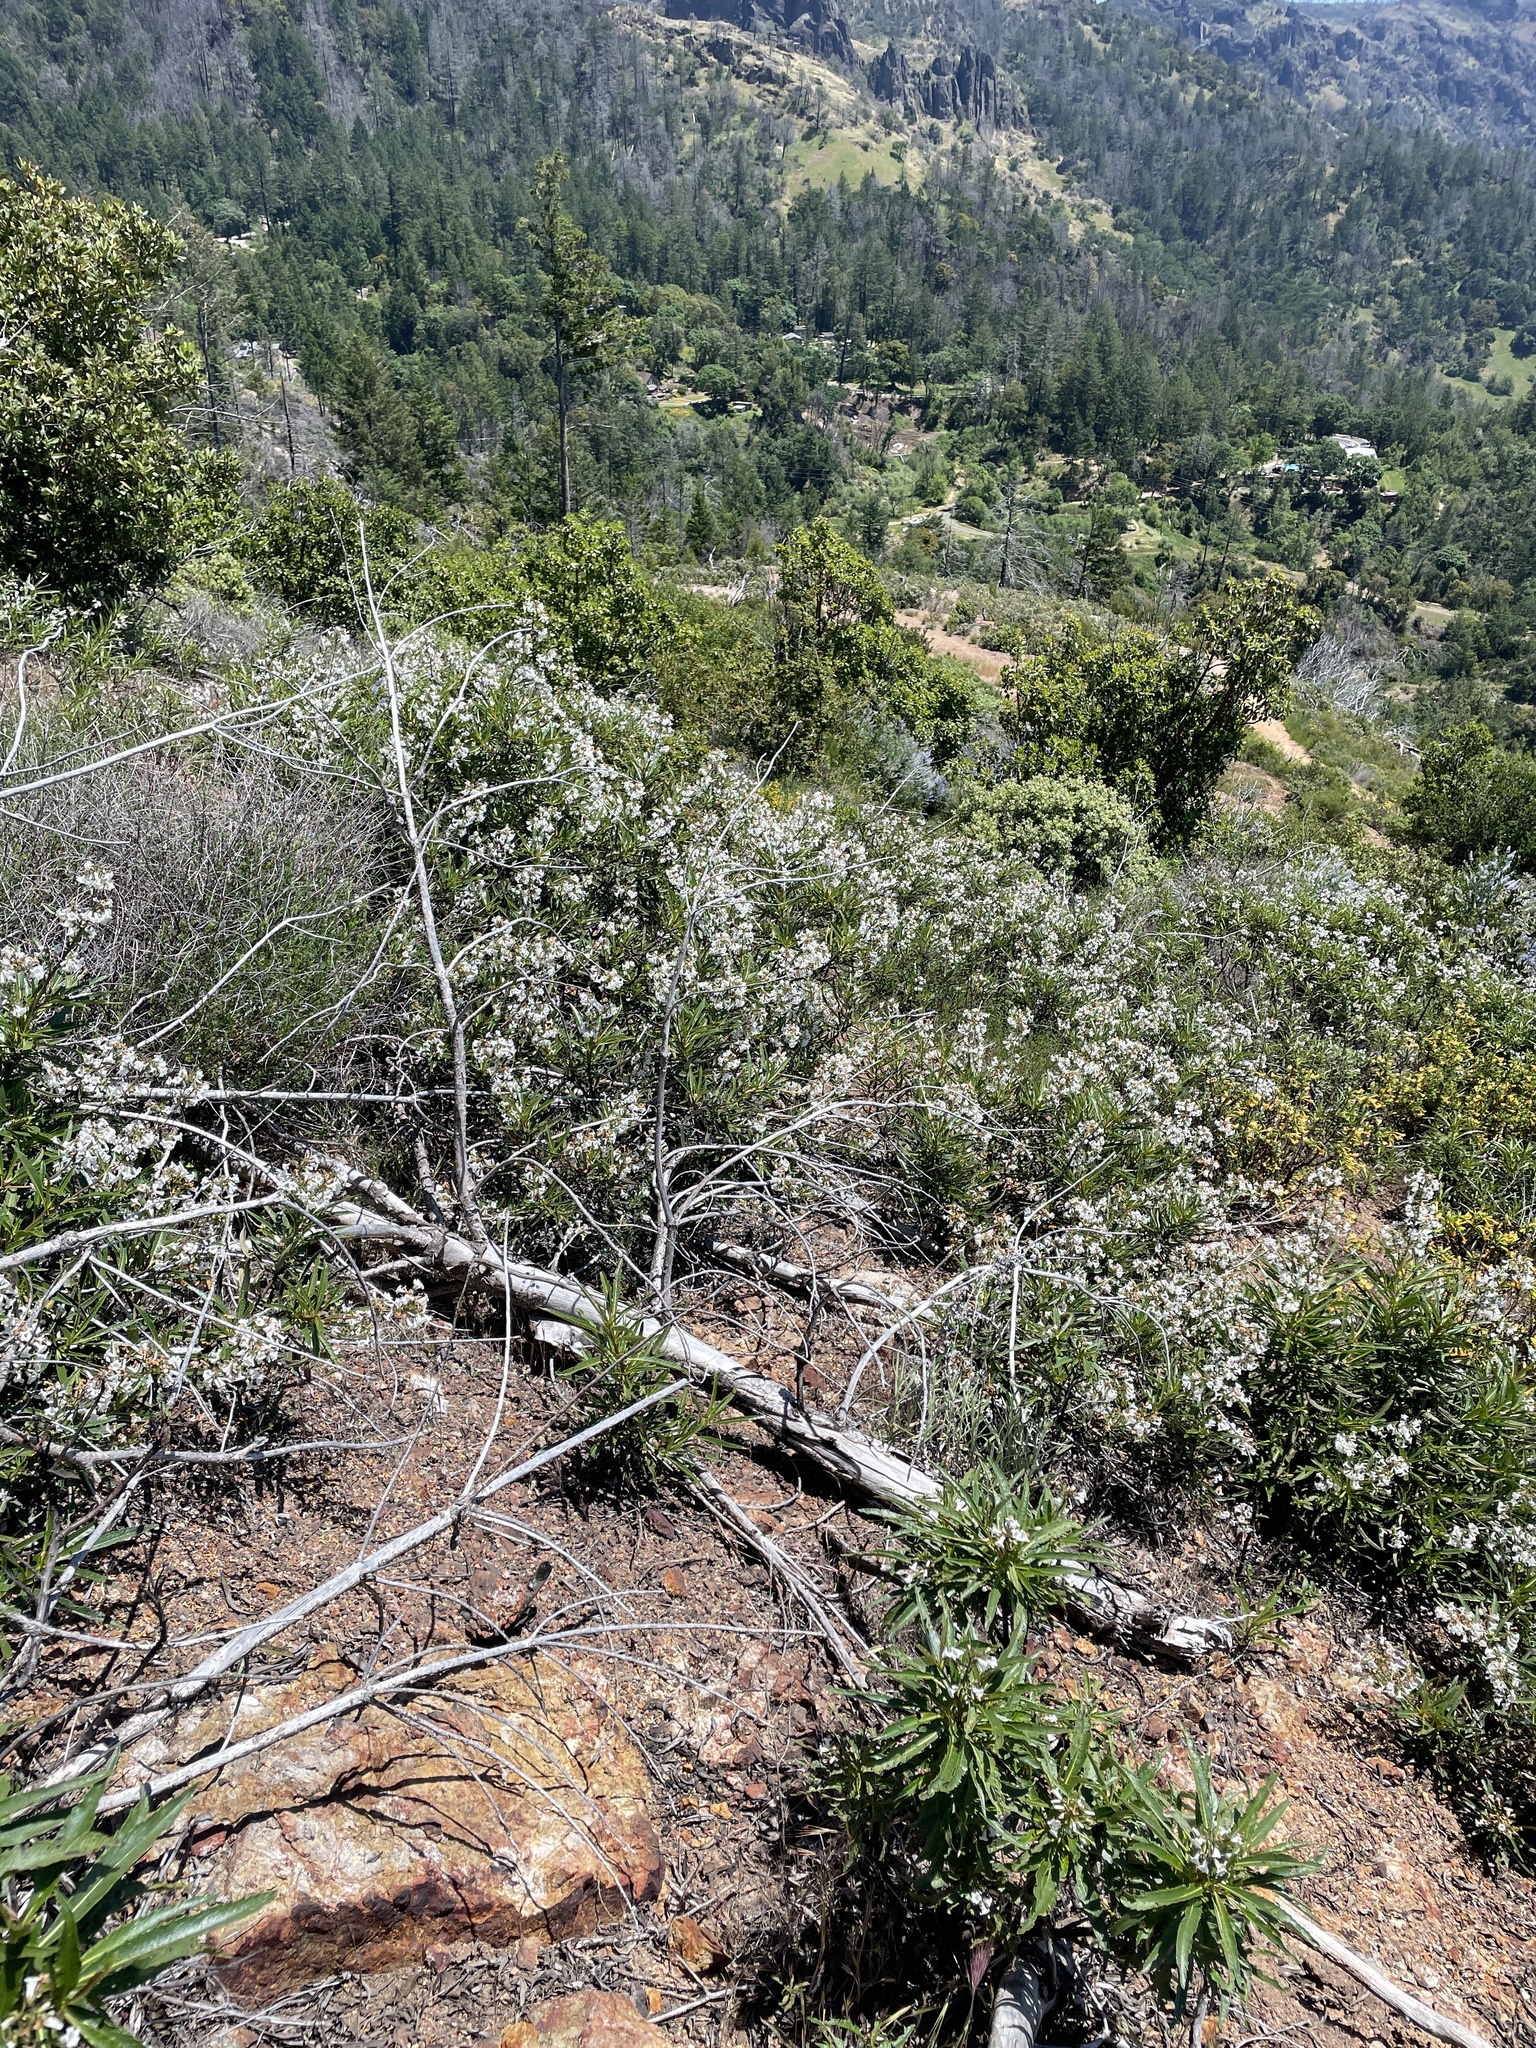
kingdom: Plantae
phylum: Tracheophyta
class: Magnoliopsida
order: Boraginales
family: Namaceae
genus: Eriodictyon
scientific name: Eriodictyon californicum
